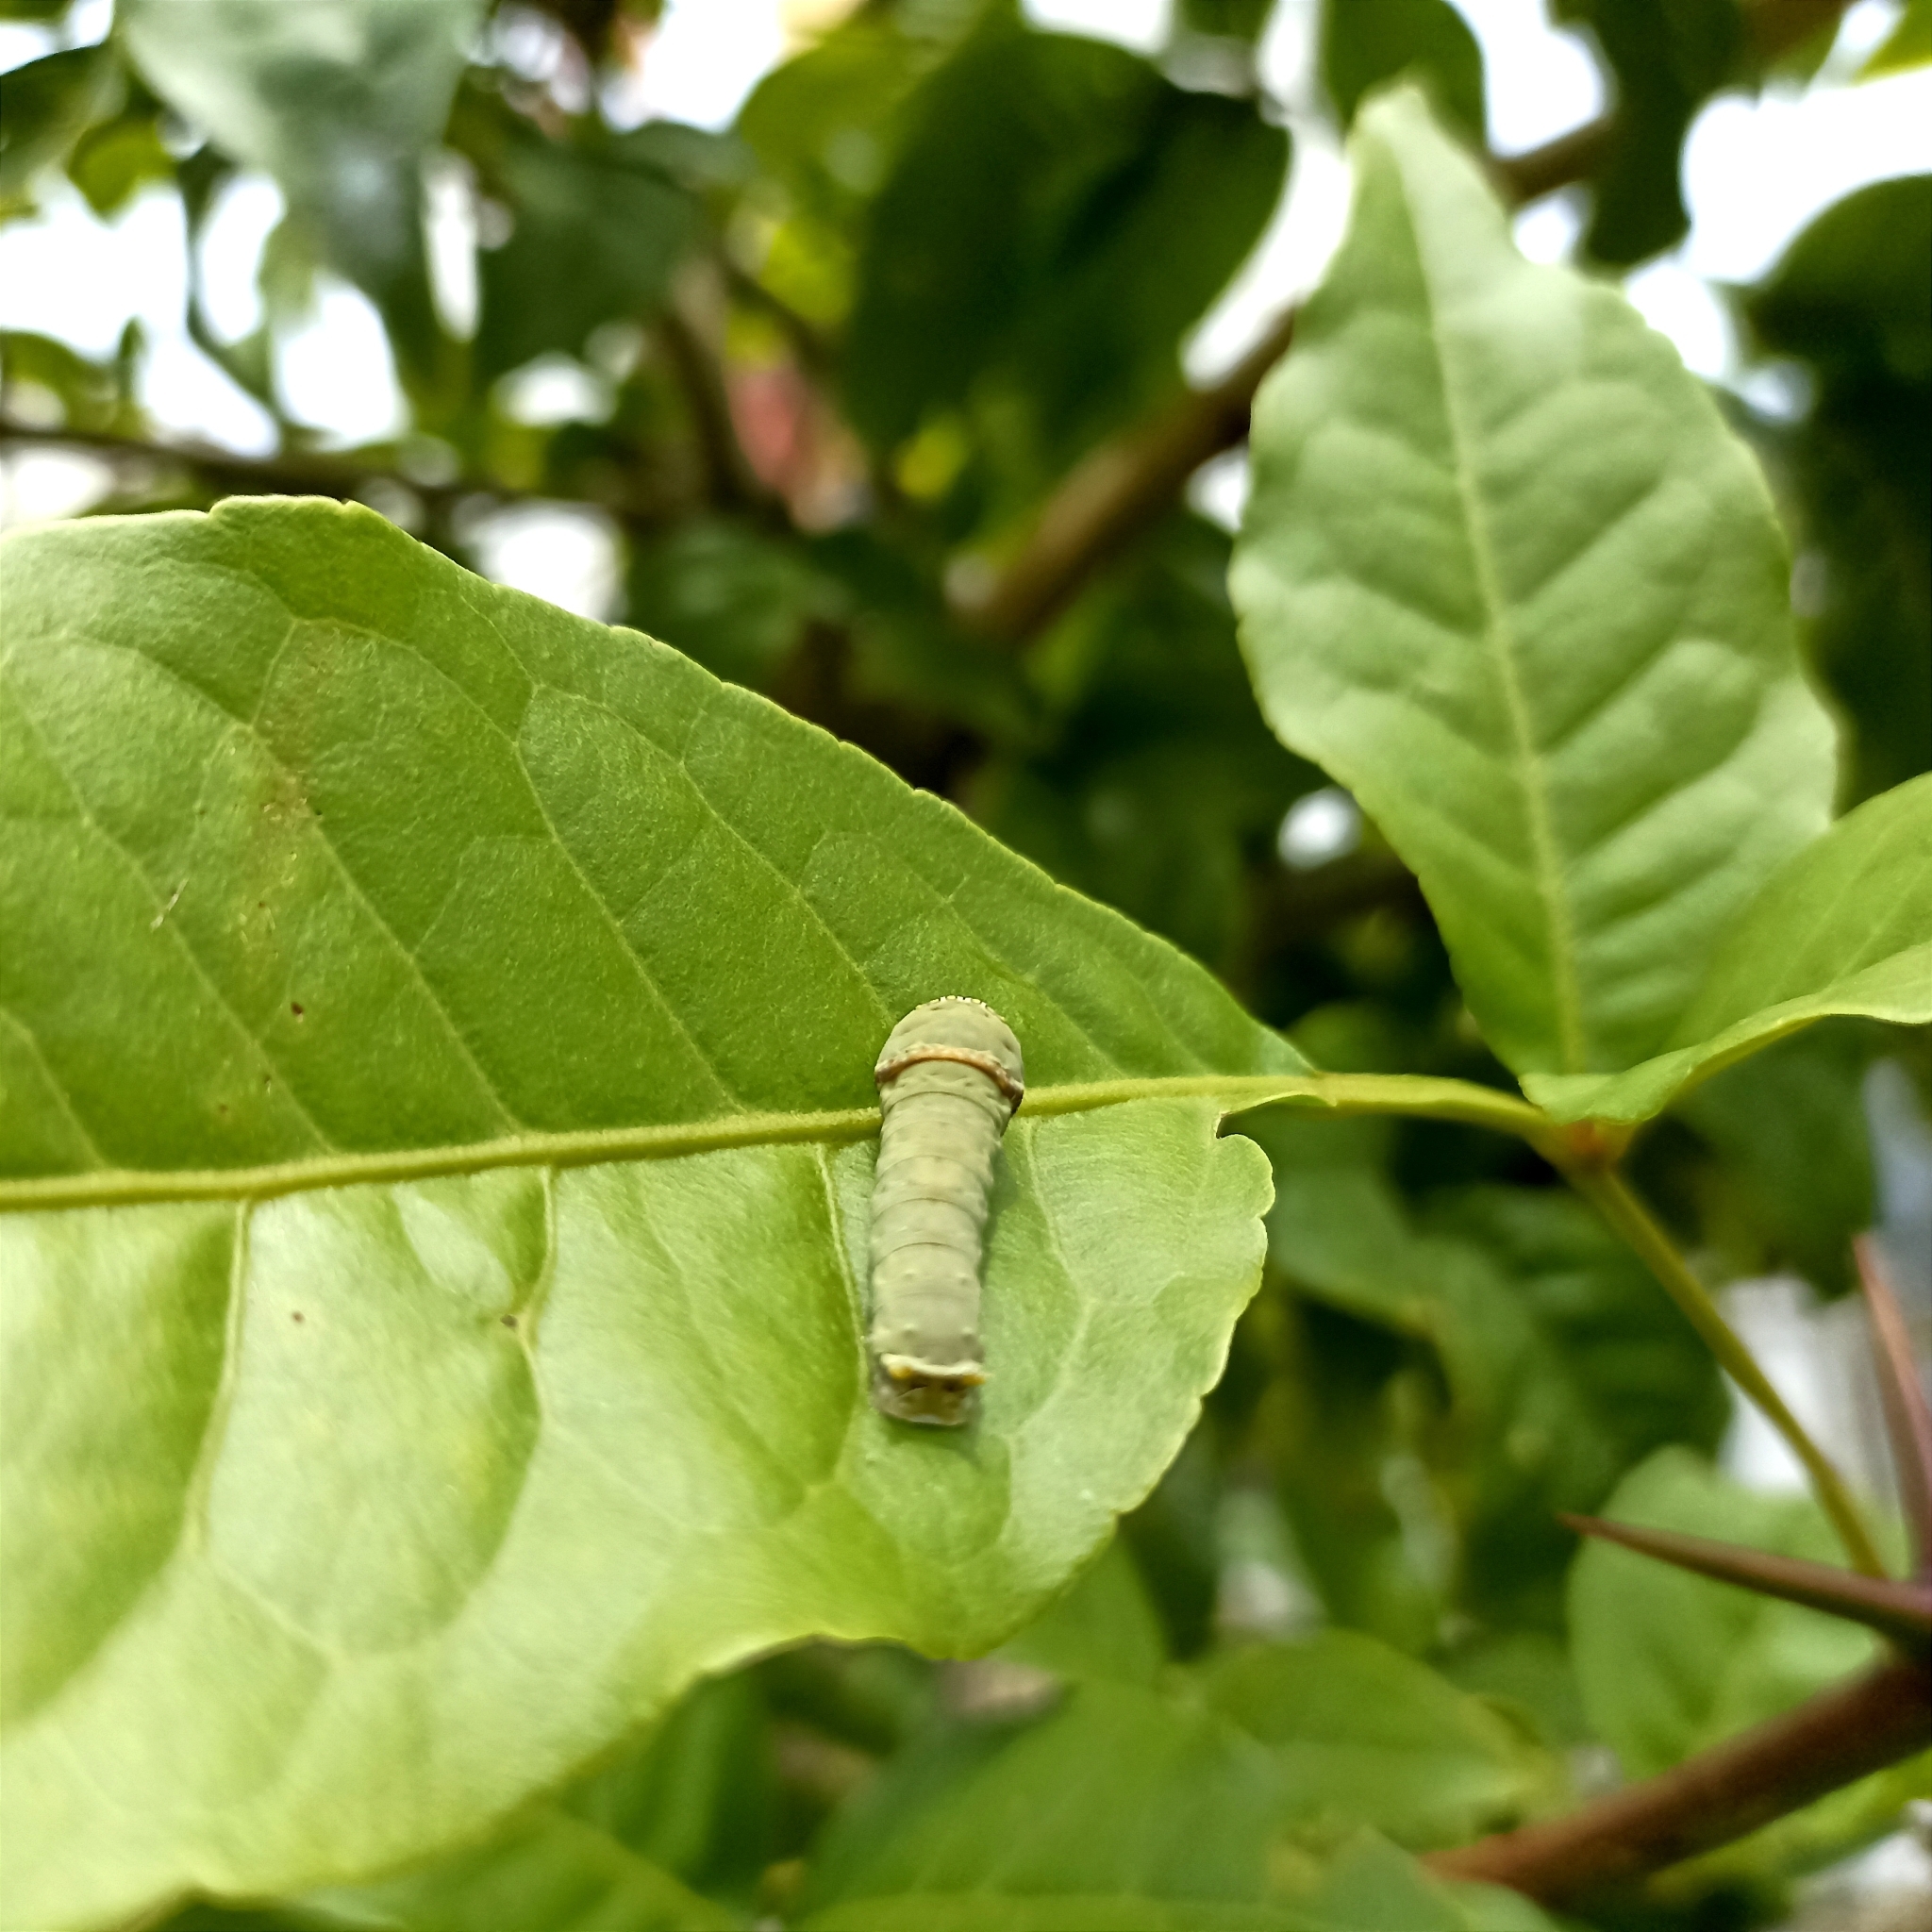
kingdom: Animalia
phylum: Arthropoda
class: Insecta
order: Lepidoptera
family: Papilionidae
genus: Papilio
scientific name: Papilio demoleus
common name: Lime butterfly
